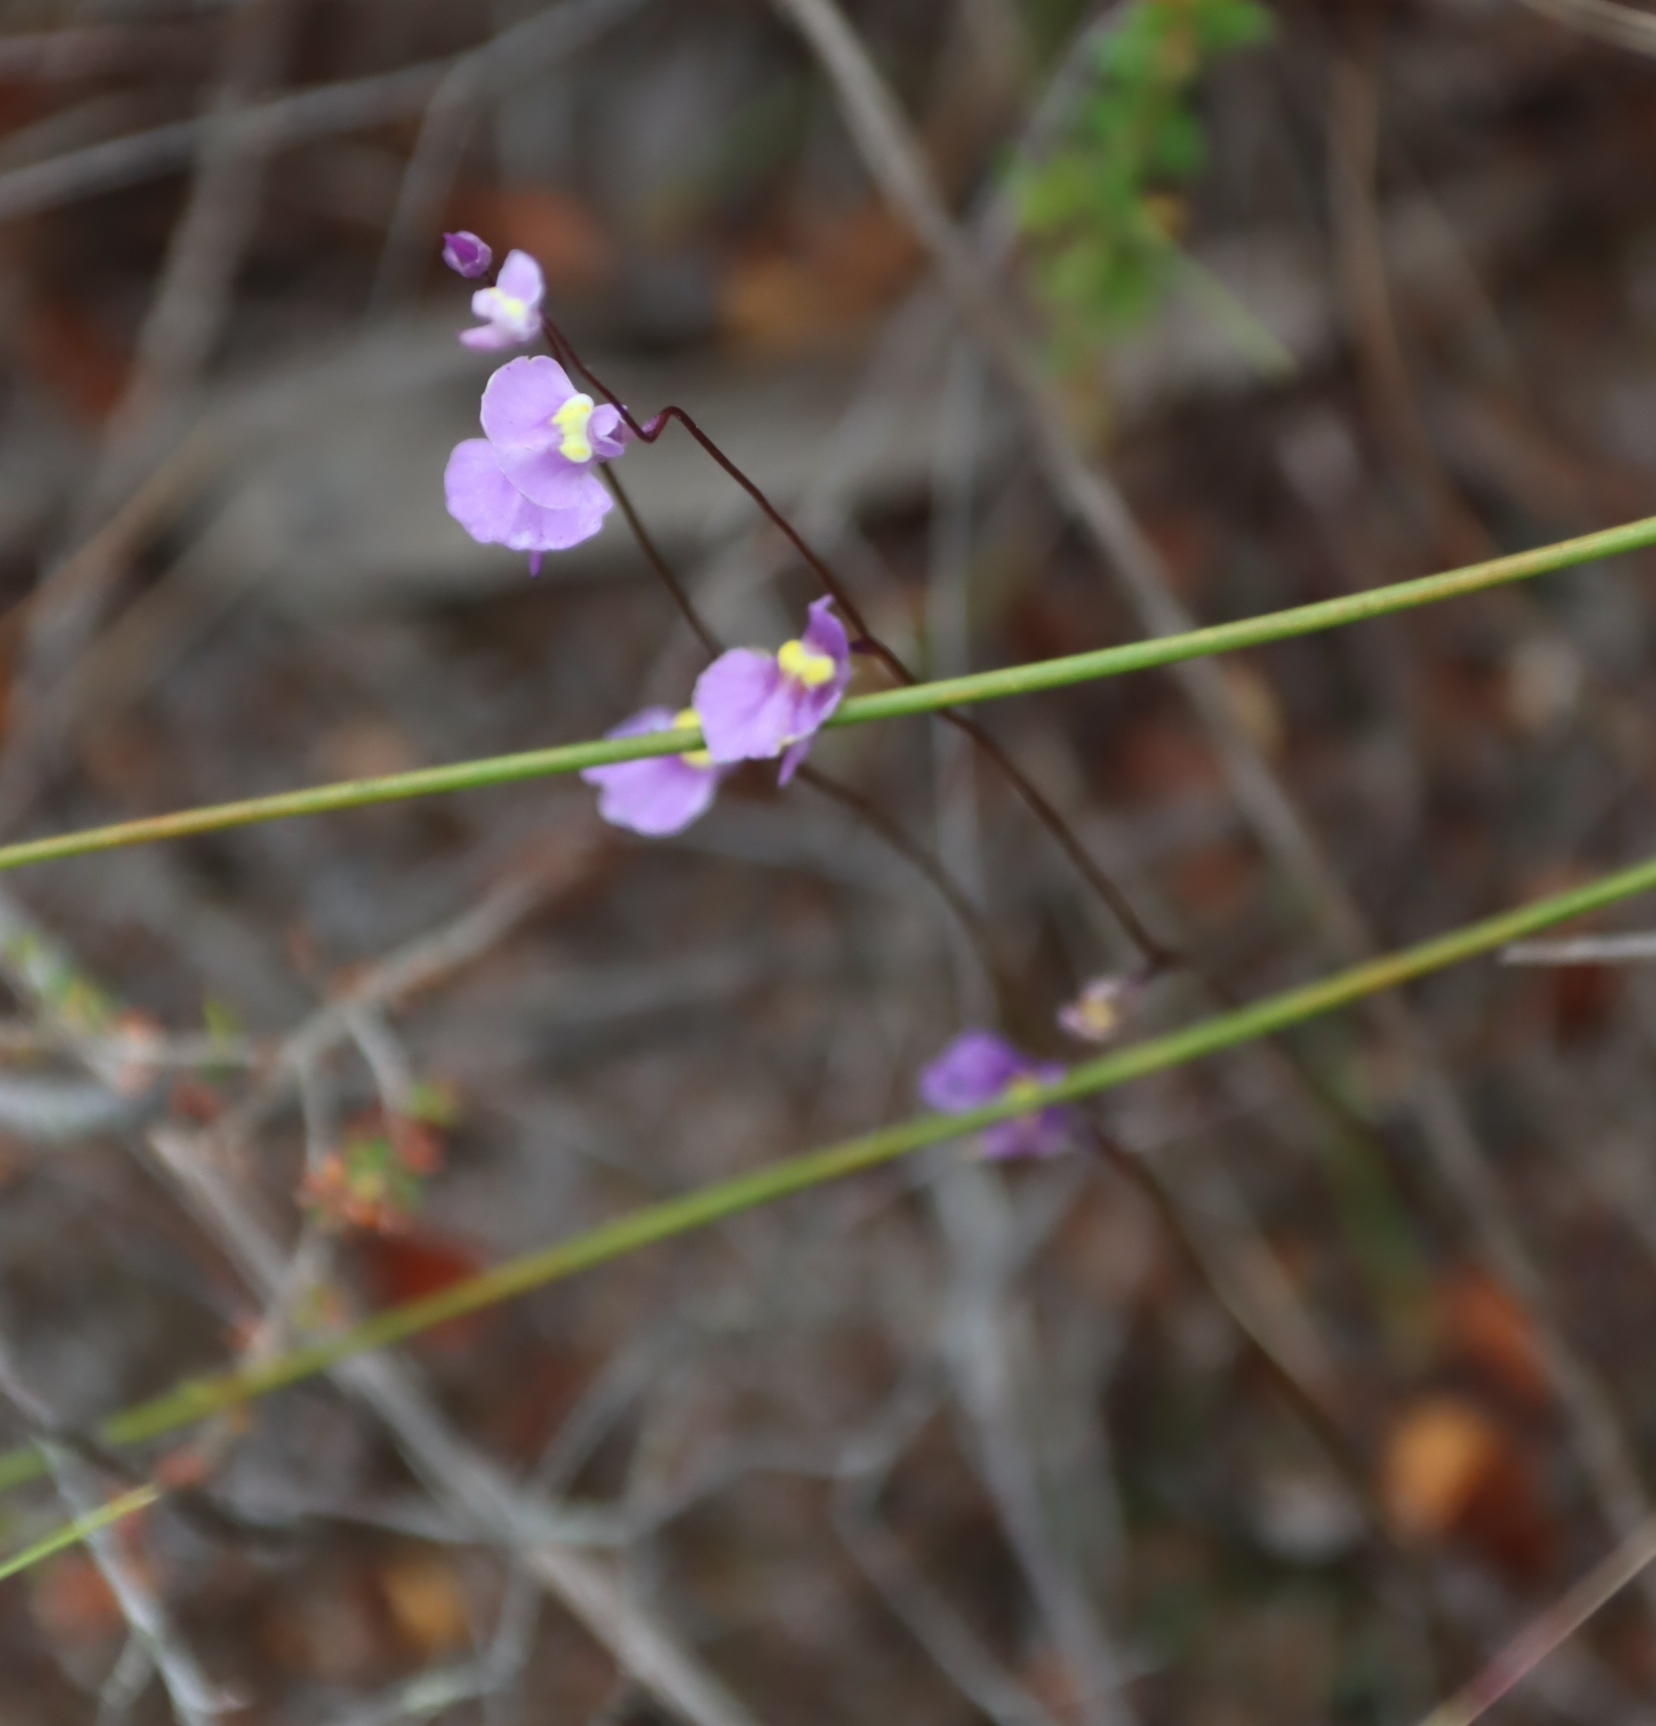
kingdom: Plantae
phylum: Tracheophyta
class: Magnoliopsida
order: Lamiales
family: Lentibulariaceae
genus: Utricularia
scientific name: Utricularia bisquamata
